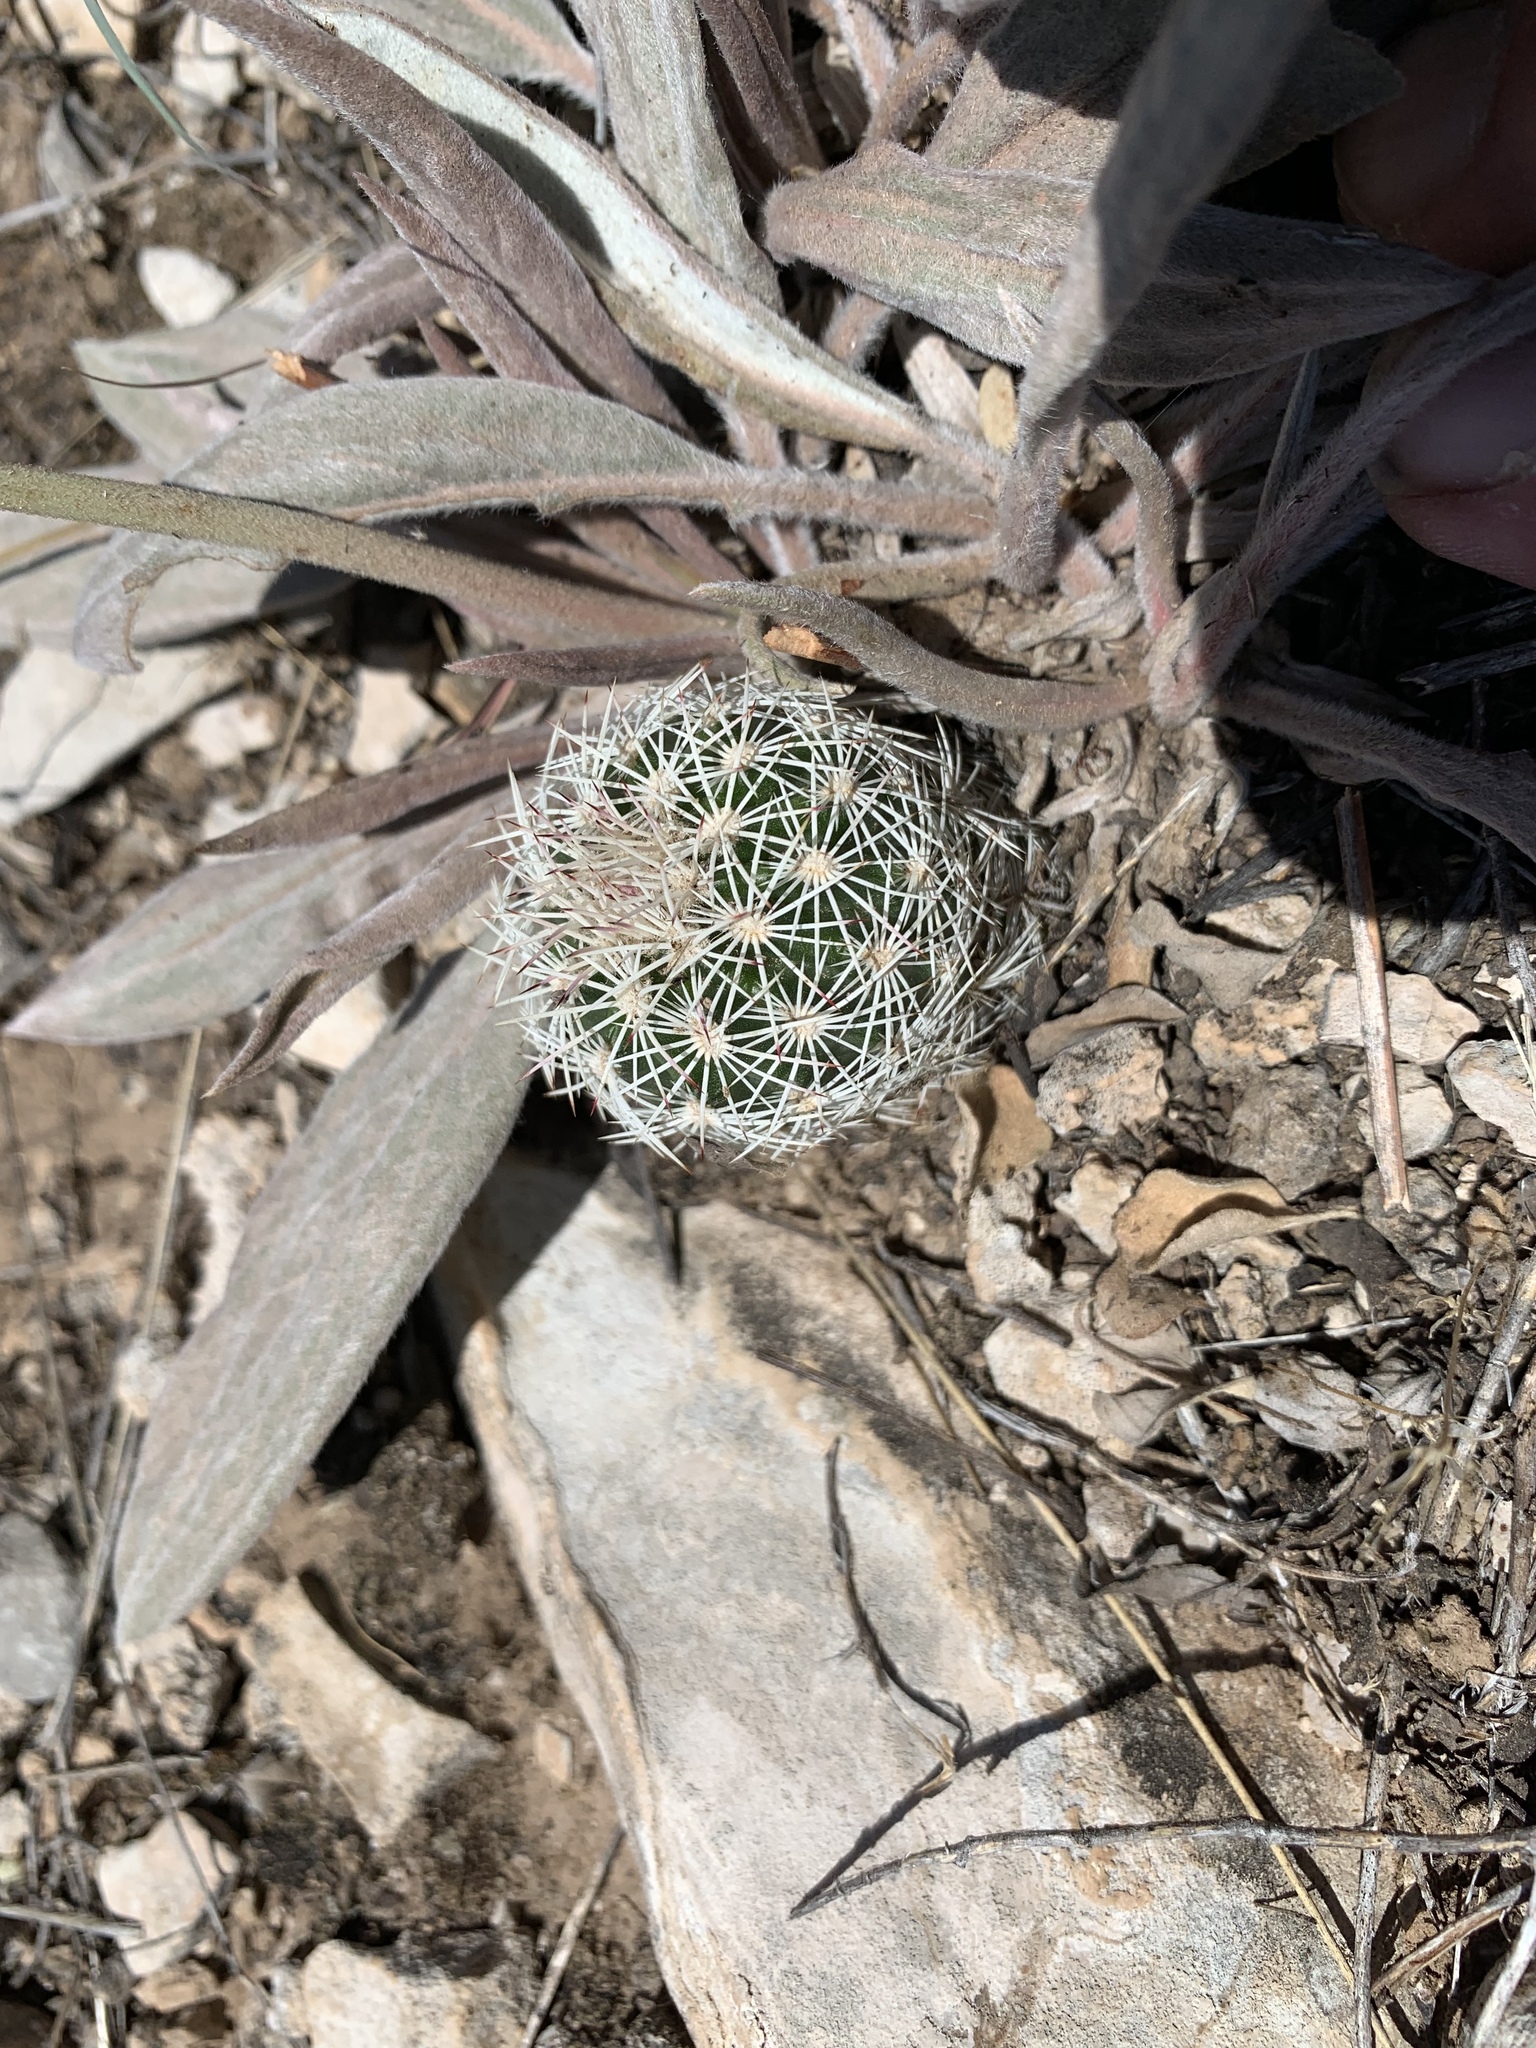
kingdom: Plantae
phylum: Tracheophyta
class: Magnoliopsida
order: Caryophyllales
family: Cactaceae
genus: Echinocereus
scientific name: Echinocereus viridiflorus
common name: Nylon hedgehog cactus
